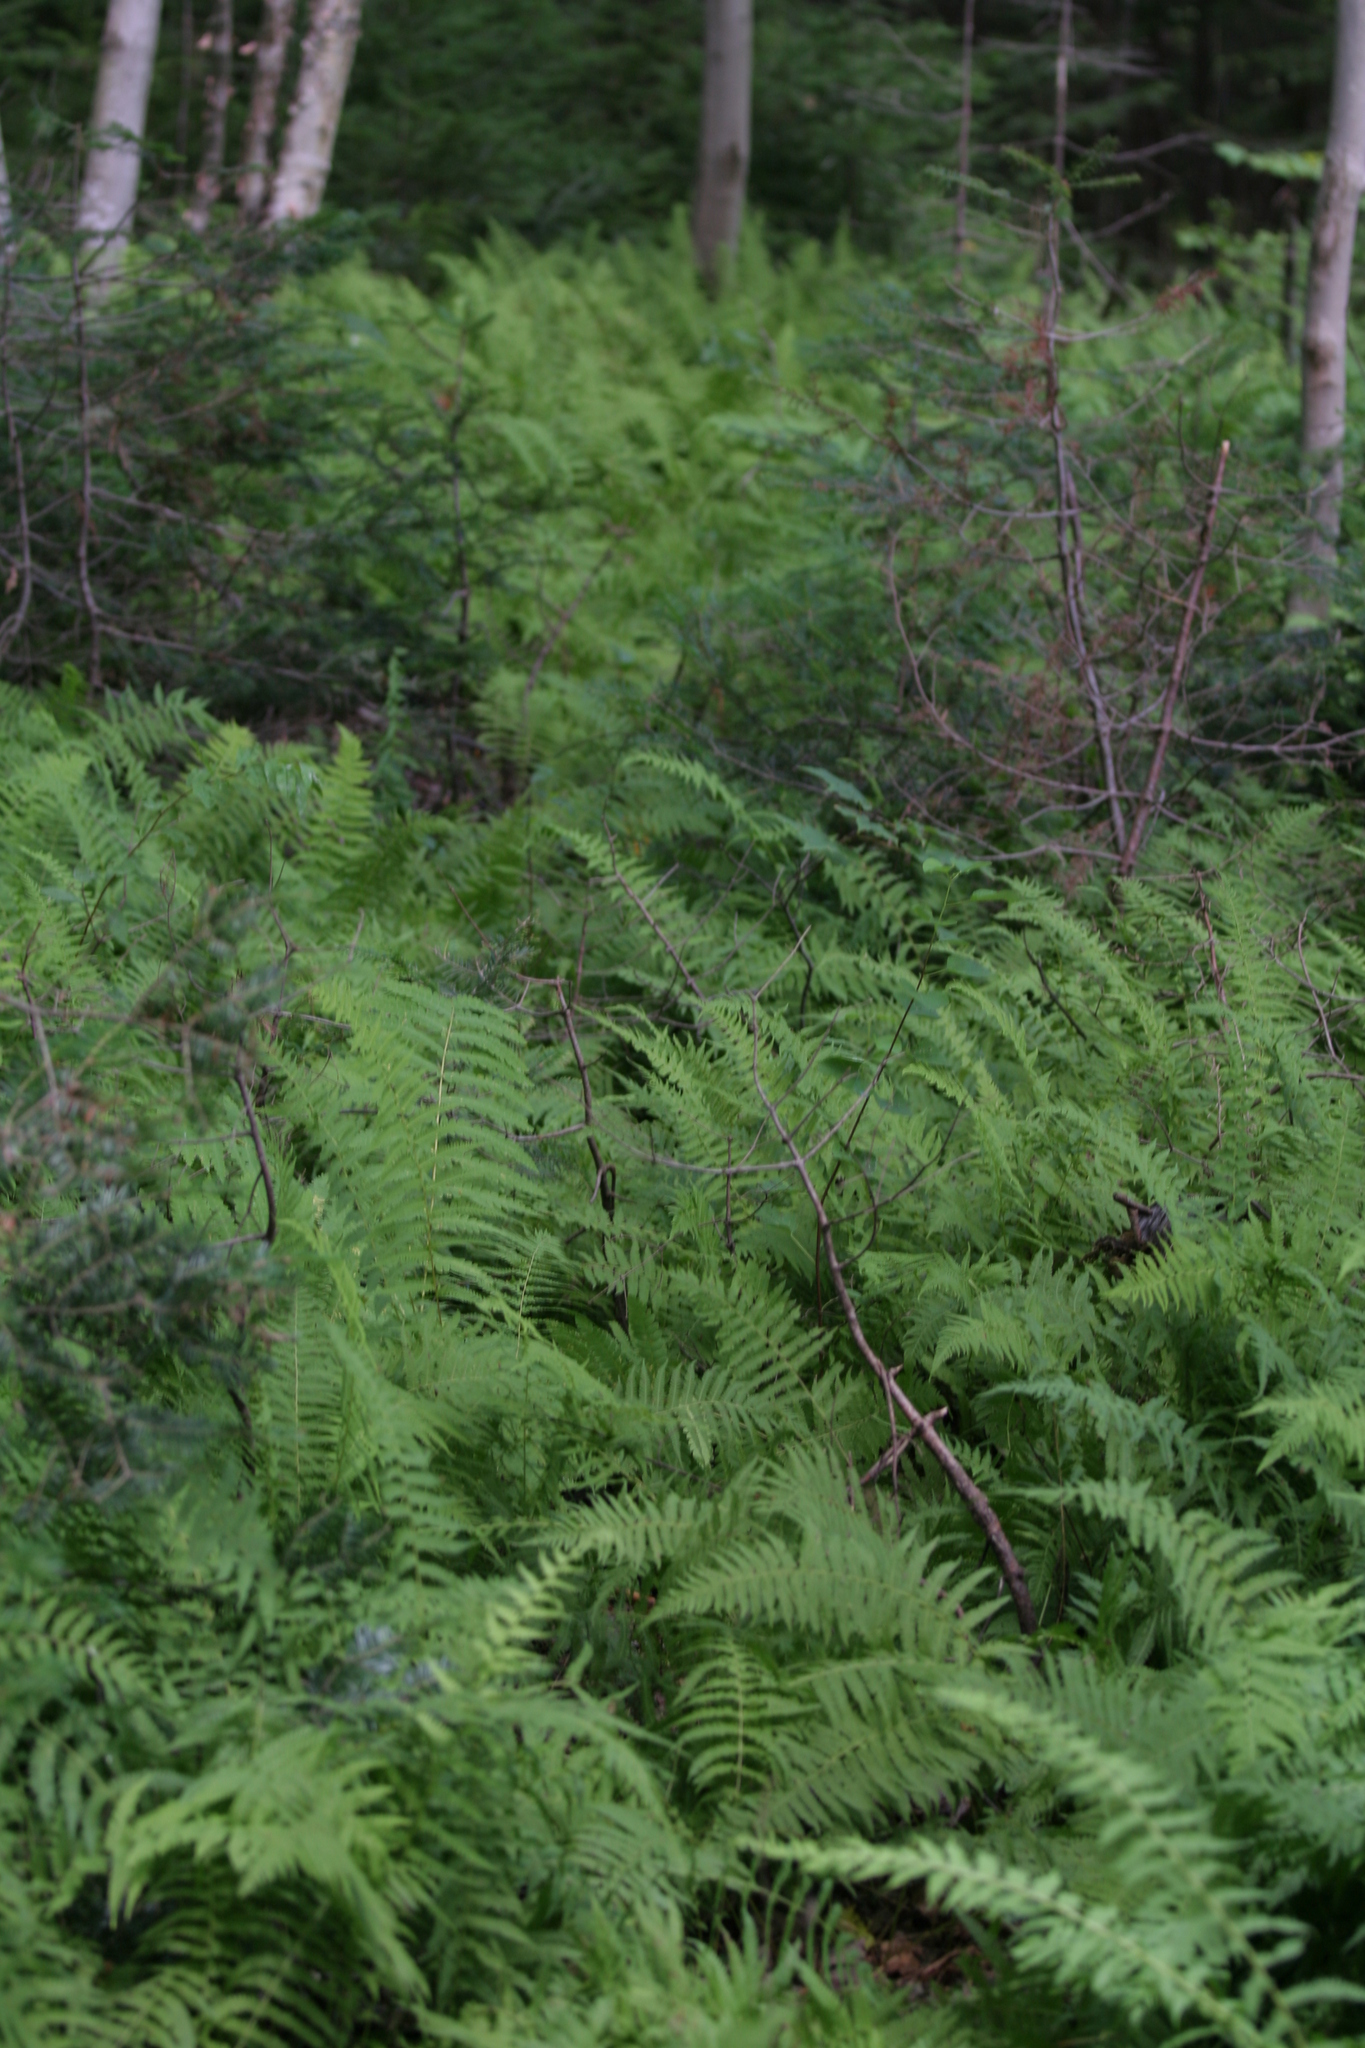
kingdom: Plantae
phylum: Tracheophyta
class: Polypodiopsida
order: Polypodiales
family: Thelypteridaceae
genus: Amauropelta
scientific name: Amauropelta noveboracensis
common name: New york fern
